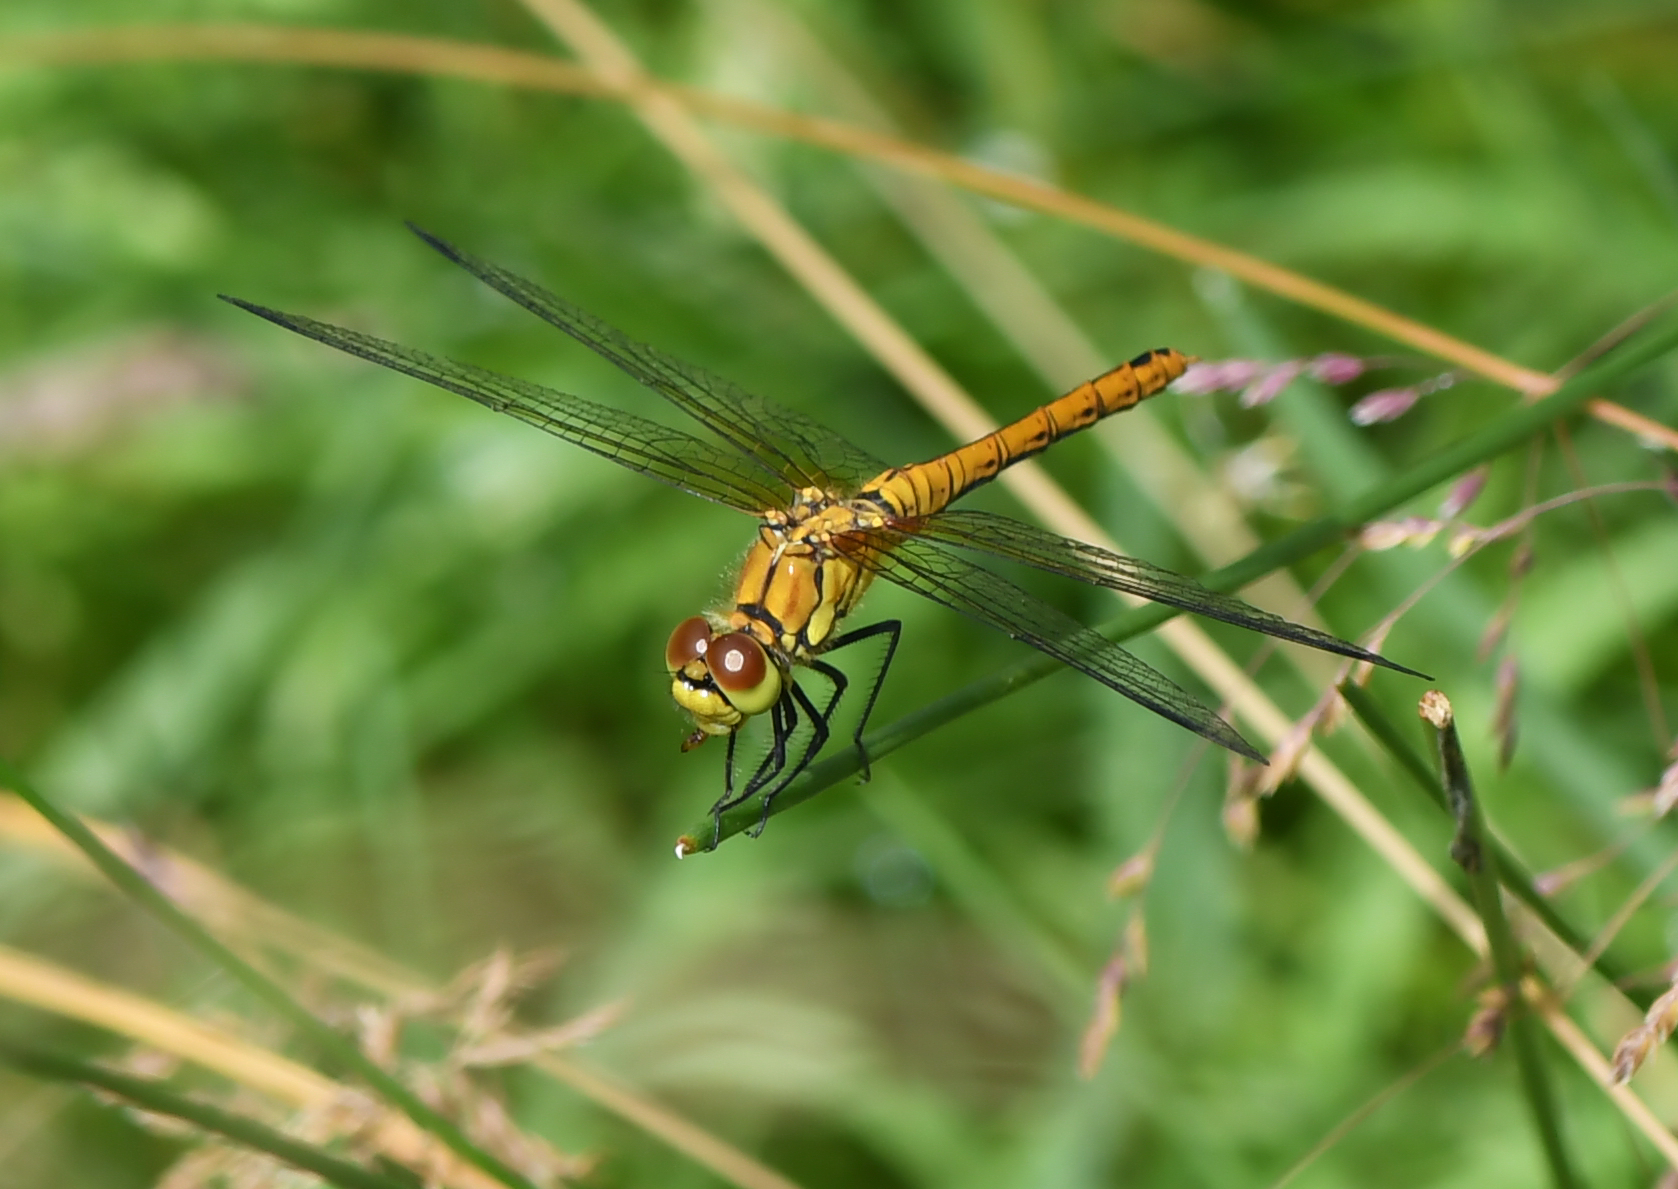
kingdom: Animalia
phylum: Arthropoda
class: Insecta
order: Odonata
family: Libellulidae
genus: Sympetrum
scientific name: Sympetrum sanguineum
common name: Ruddy darter
